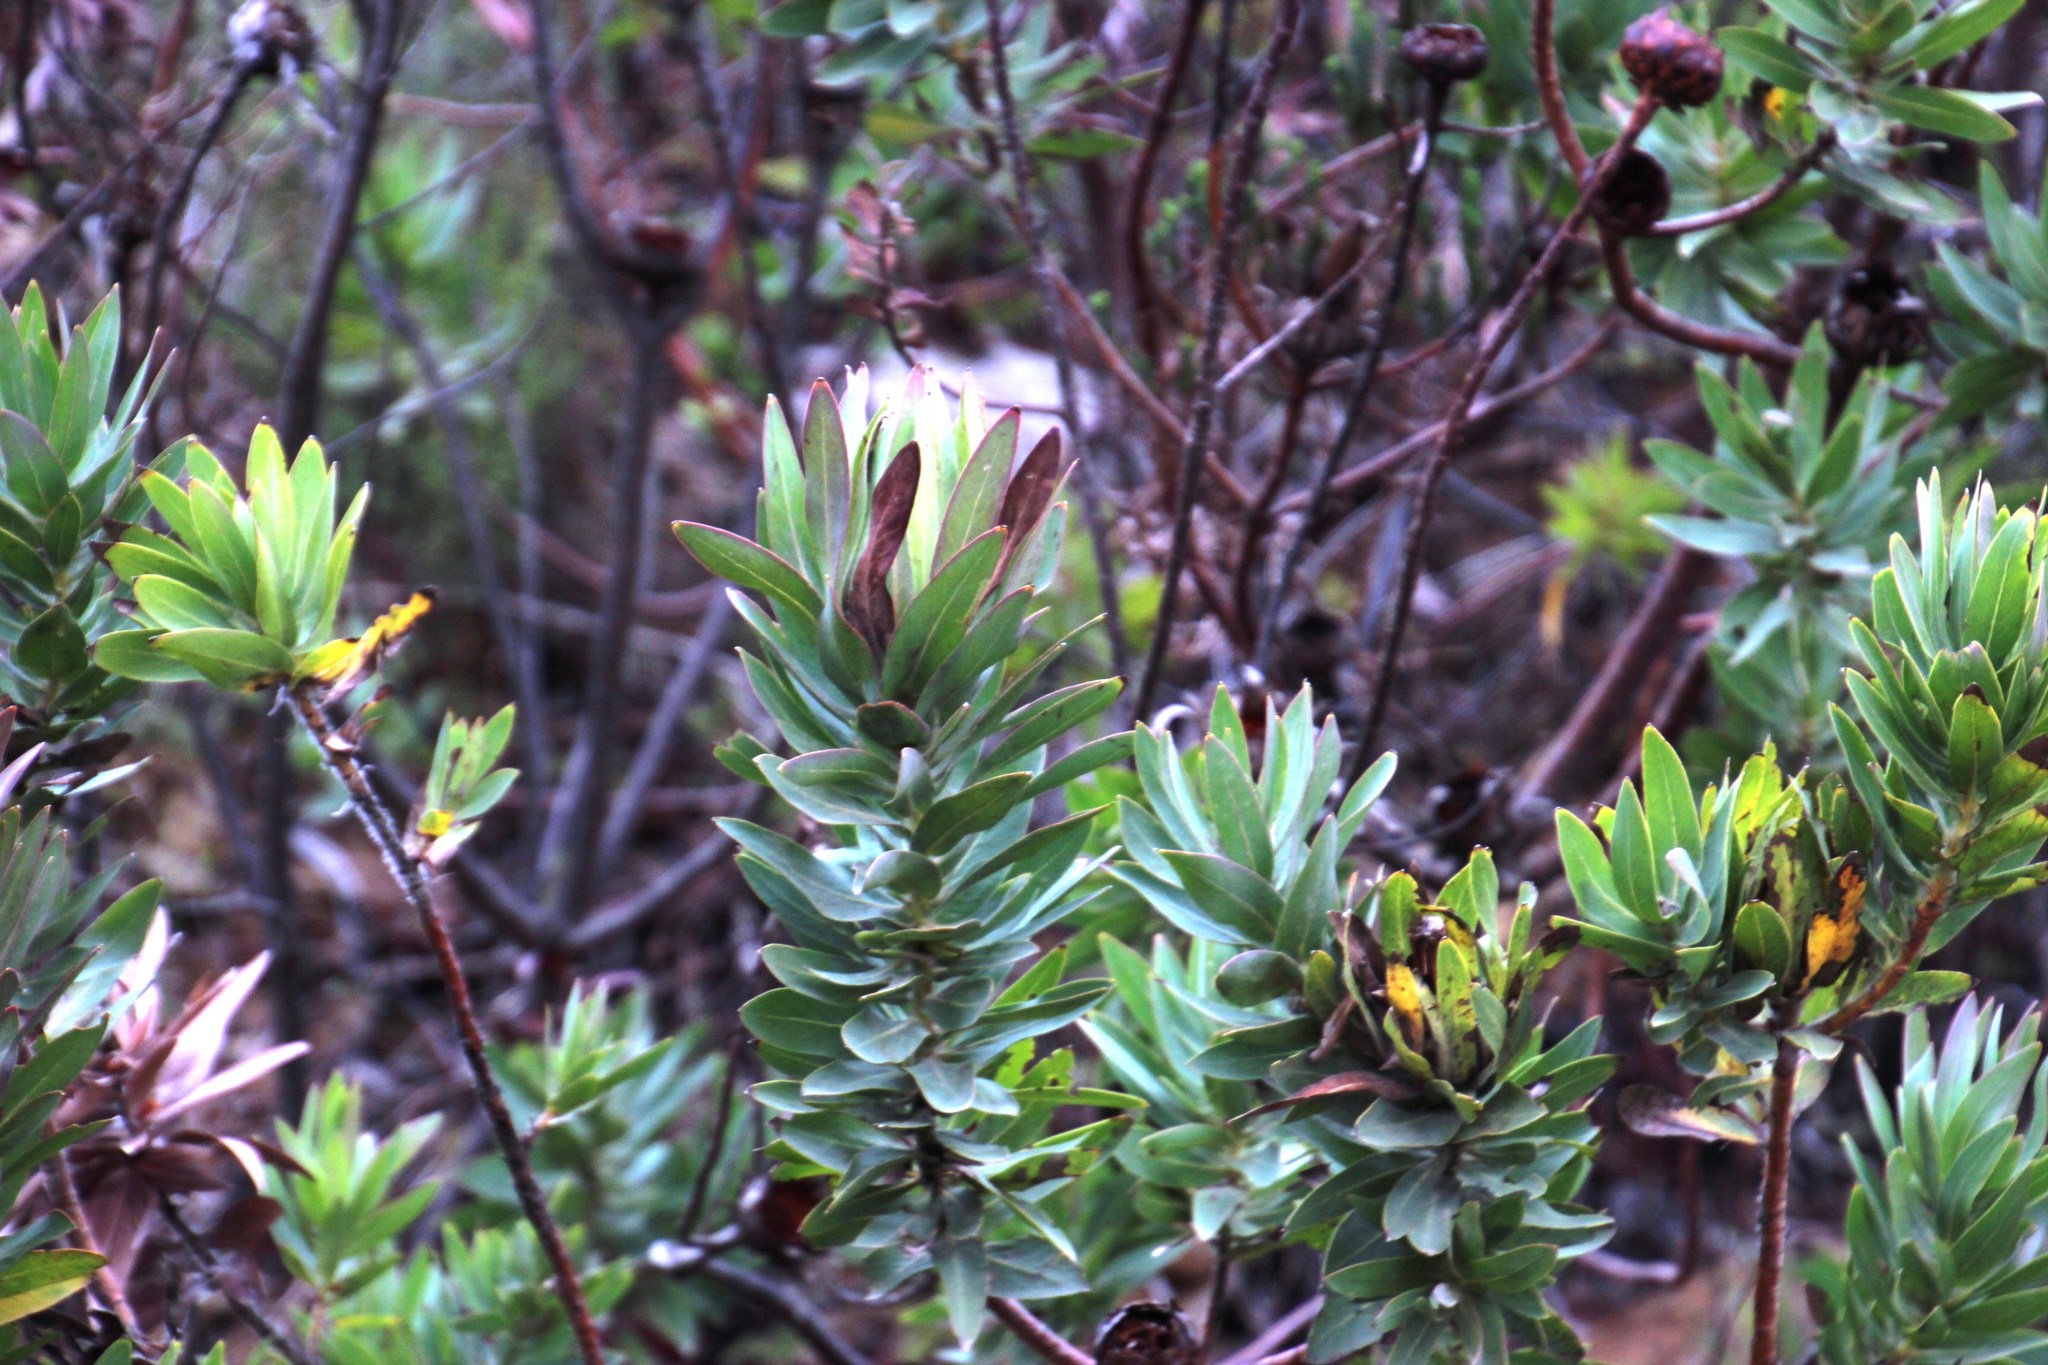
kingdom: Plantae
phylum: Tracheophyta
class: Magnoliopsida
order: Proteales
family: Proteaceae
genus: Protea
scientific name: Protea coronata
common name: Green sugarbush
